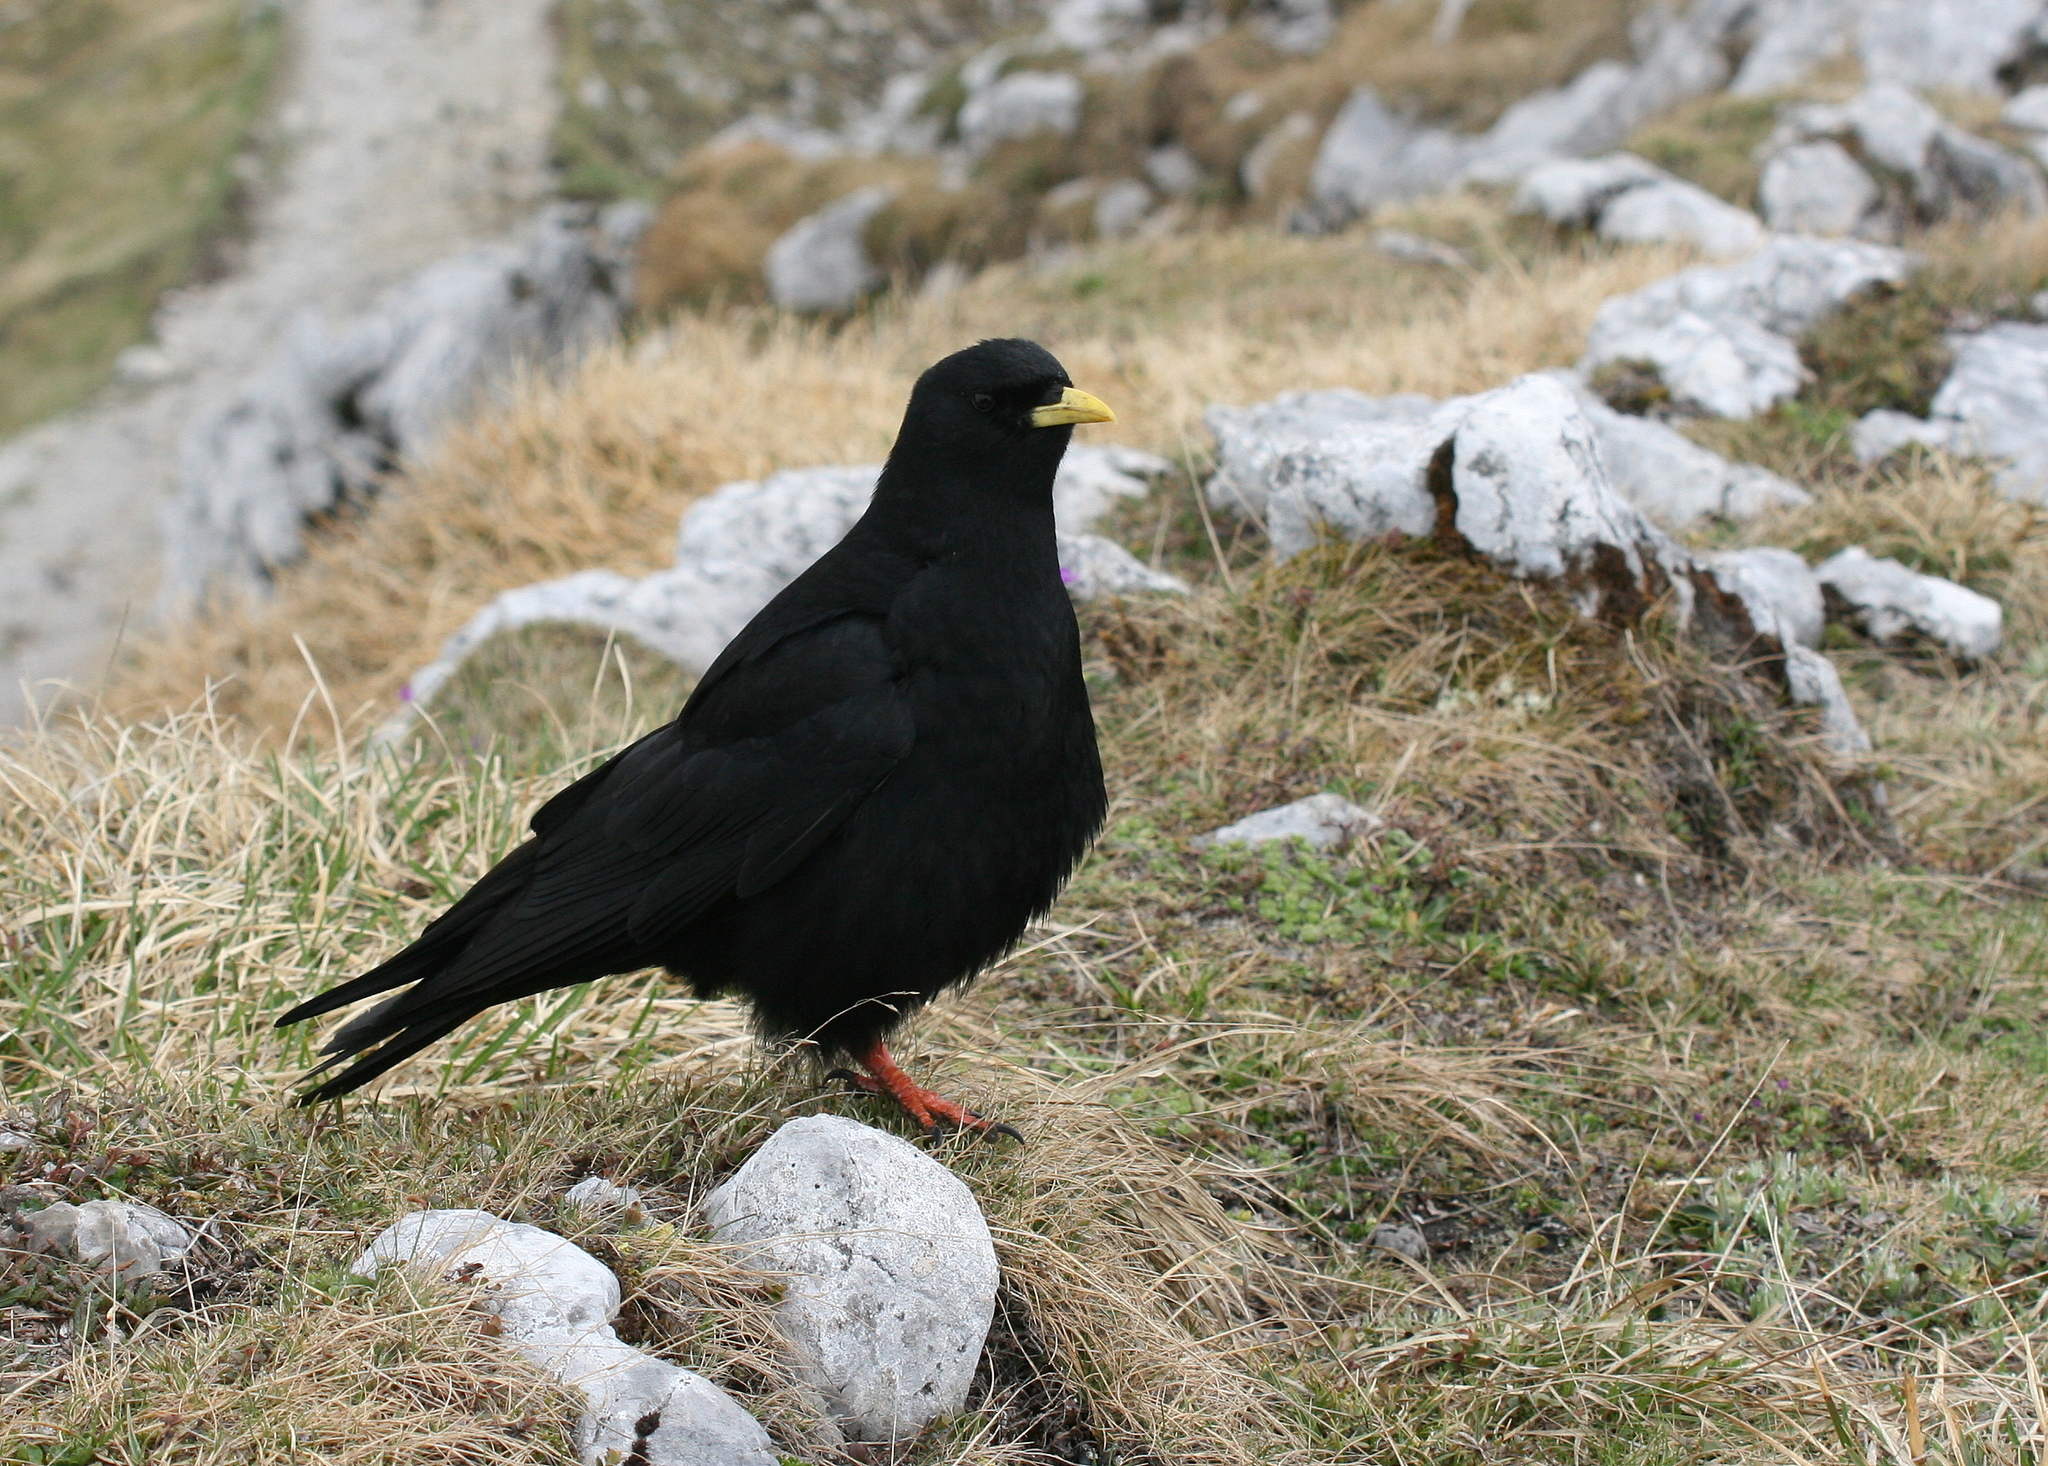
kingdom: Animalia
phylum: Chordata
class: Aves
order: Passeriformes
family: Corvidae
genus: Pyrrhocorax
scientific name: Pyrrhocorax graculus
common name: Alpine chough
